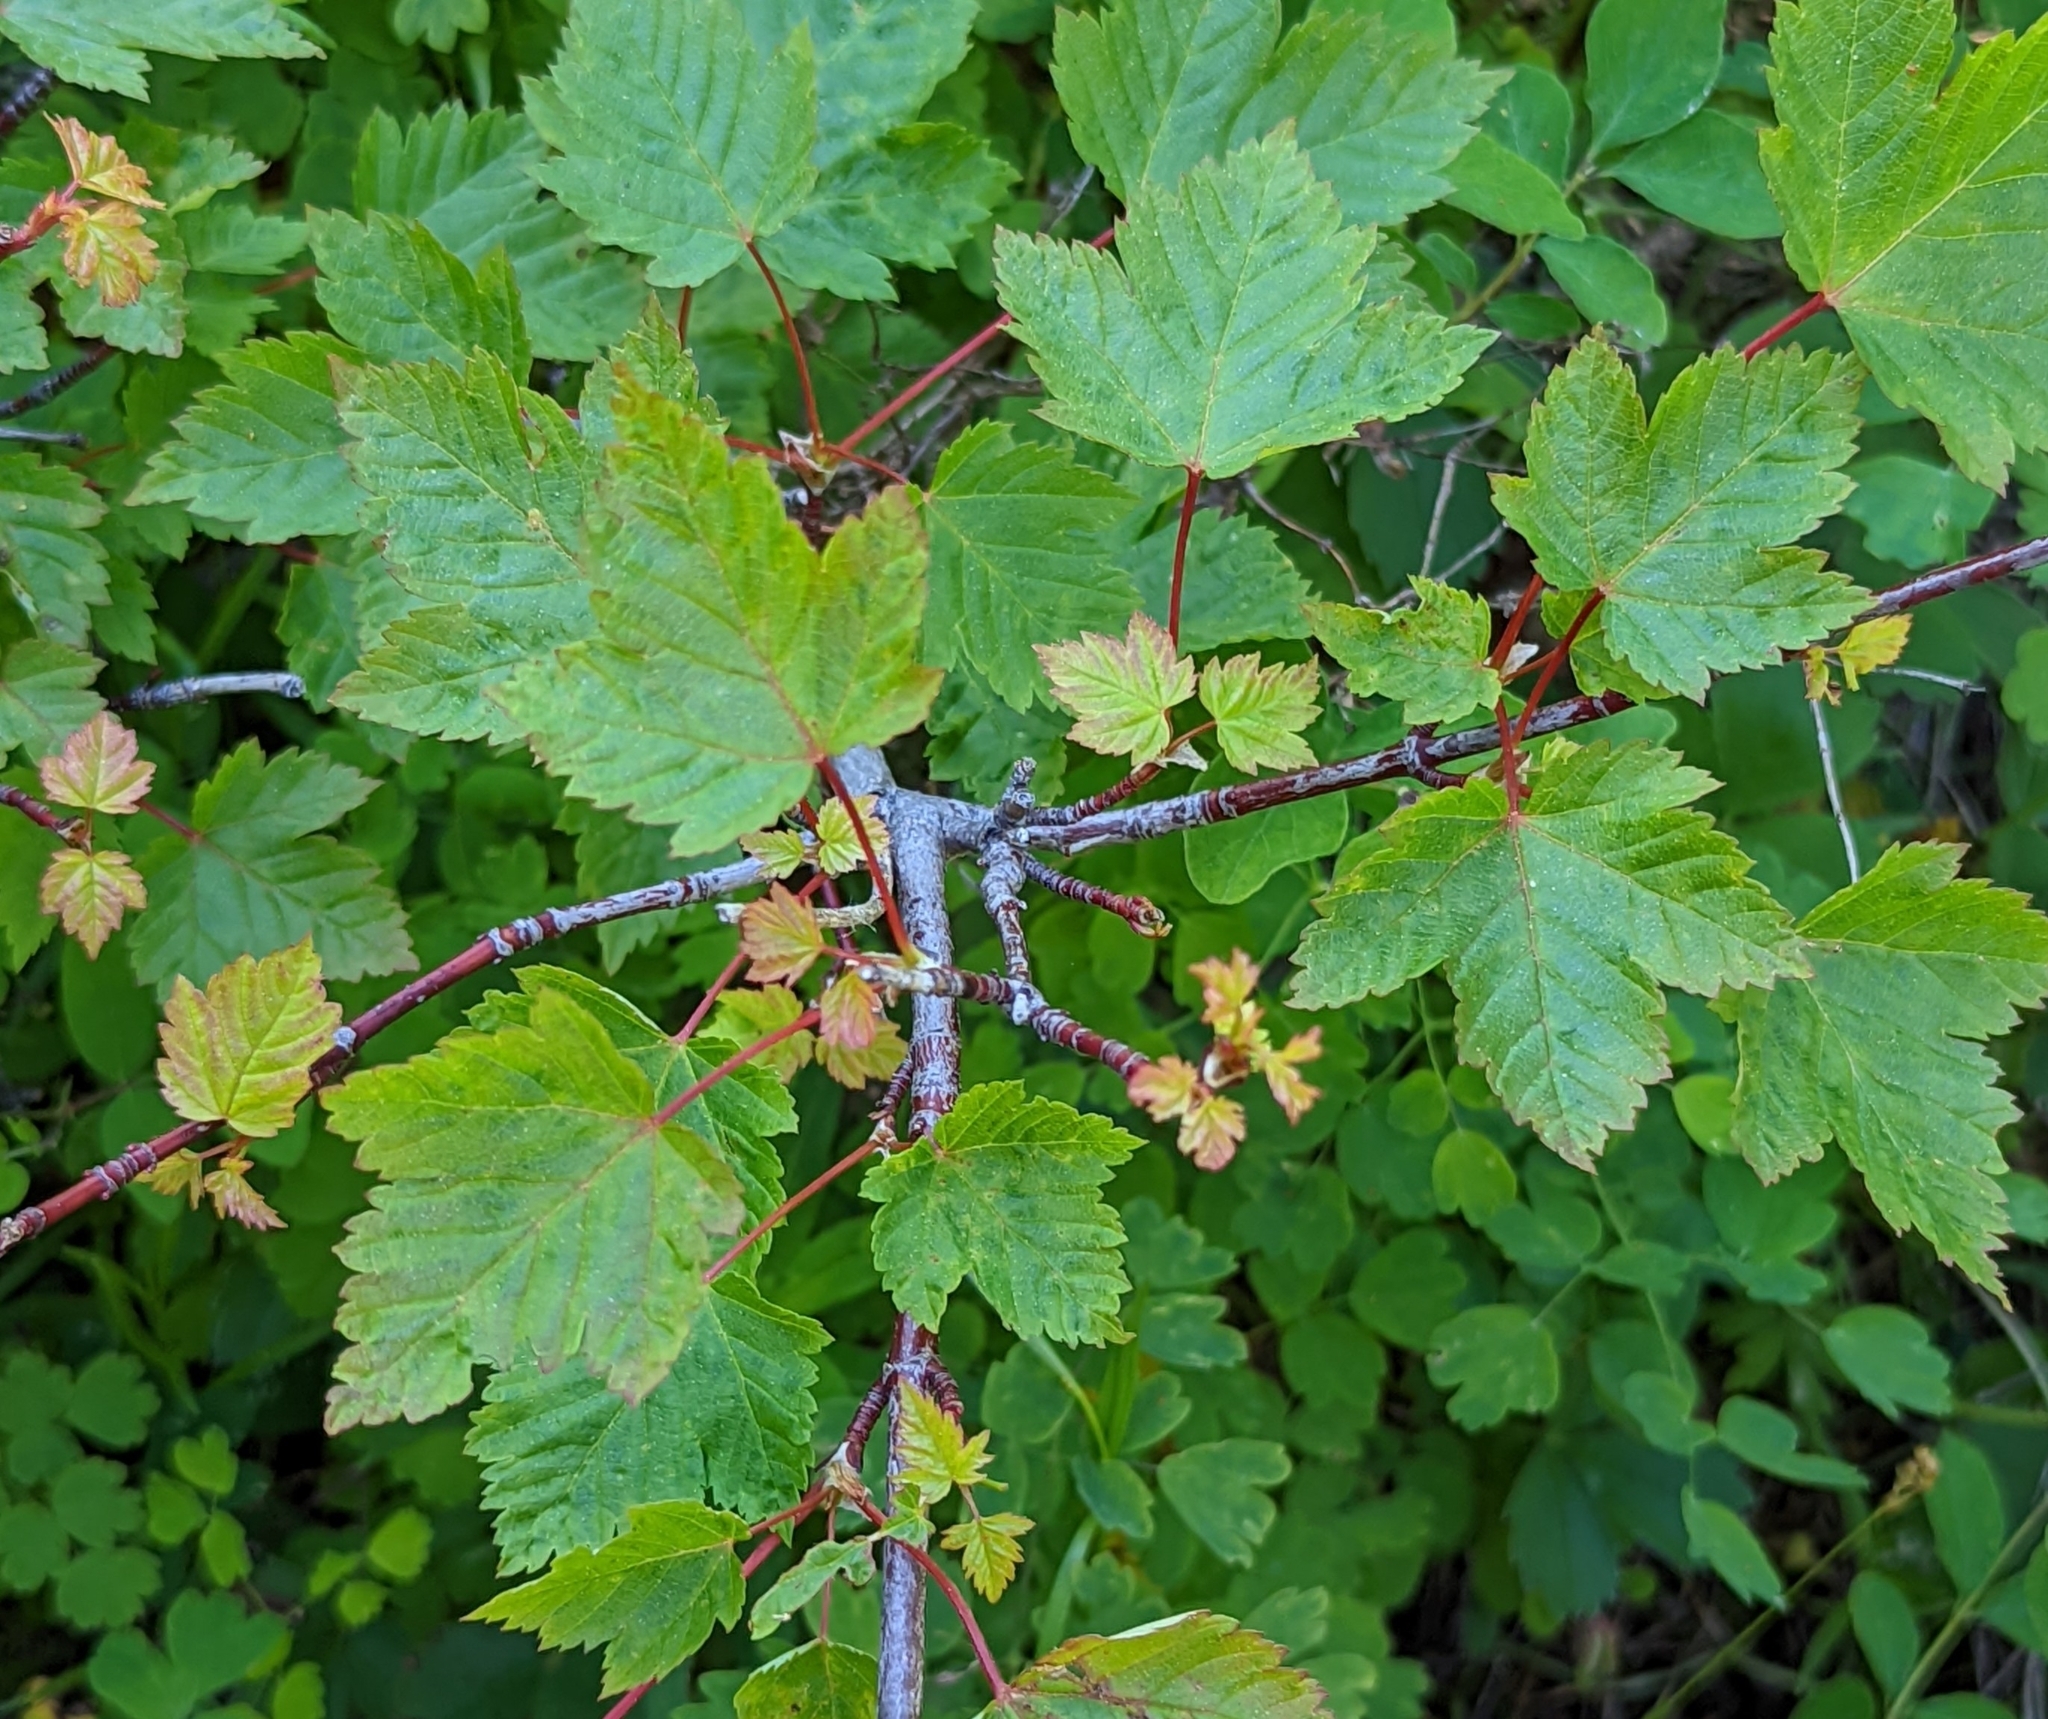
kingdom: Plantae
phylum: Tracheophyta
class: Magnoliopsida
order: Sapindales
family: Sapindaceae
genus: Acer
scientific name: Acer glabrum
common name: Rocky mountain maple
